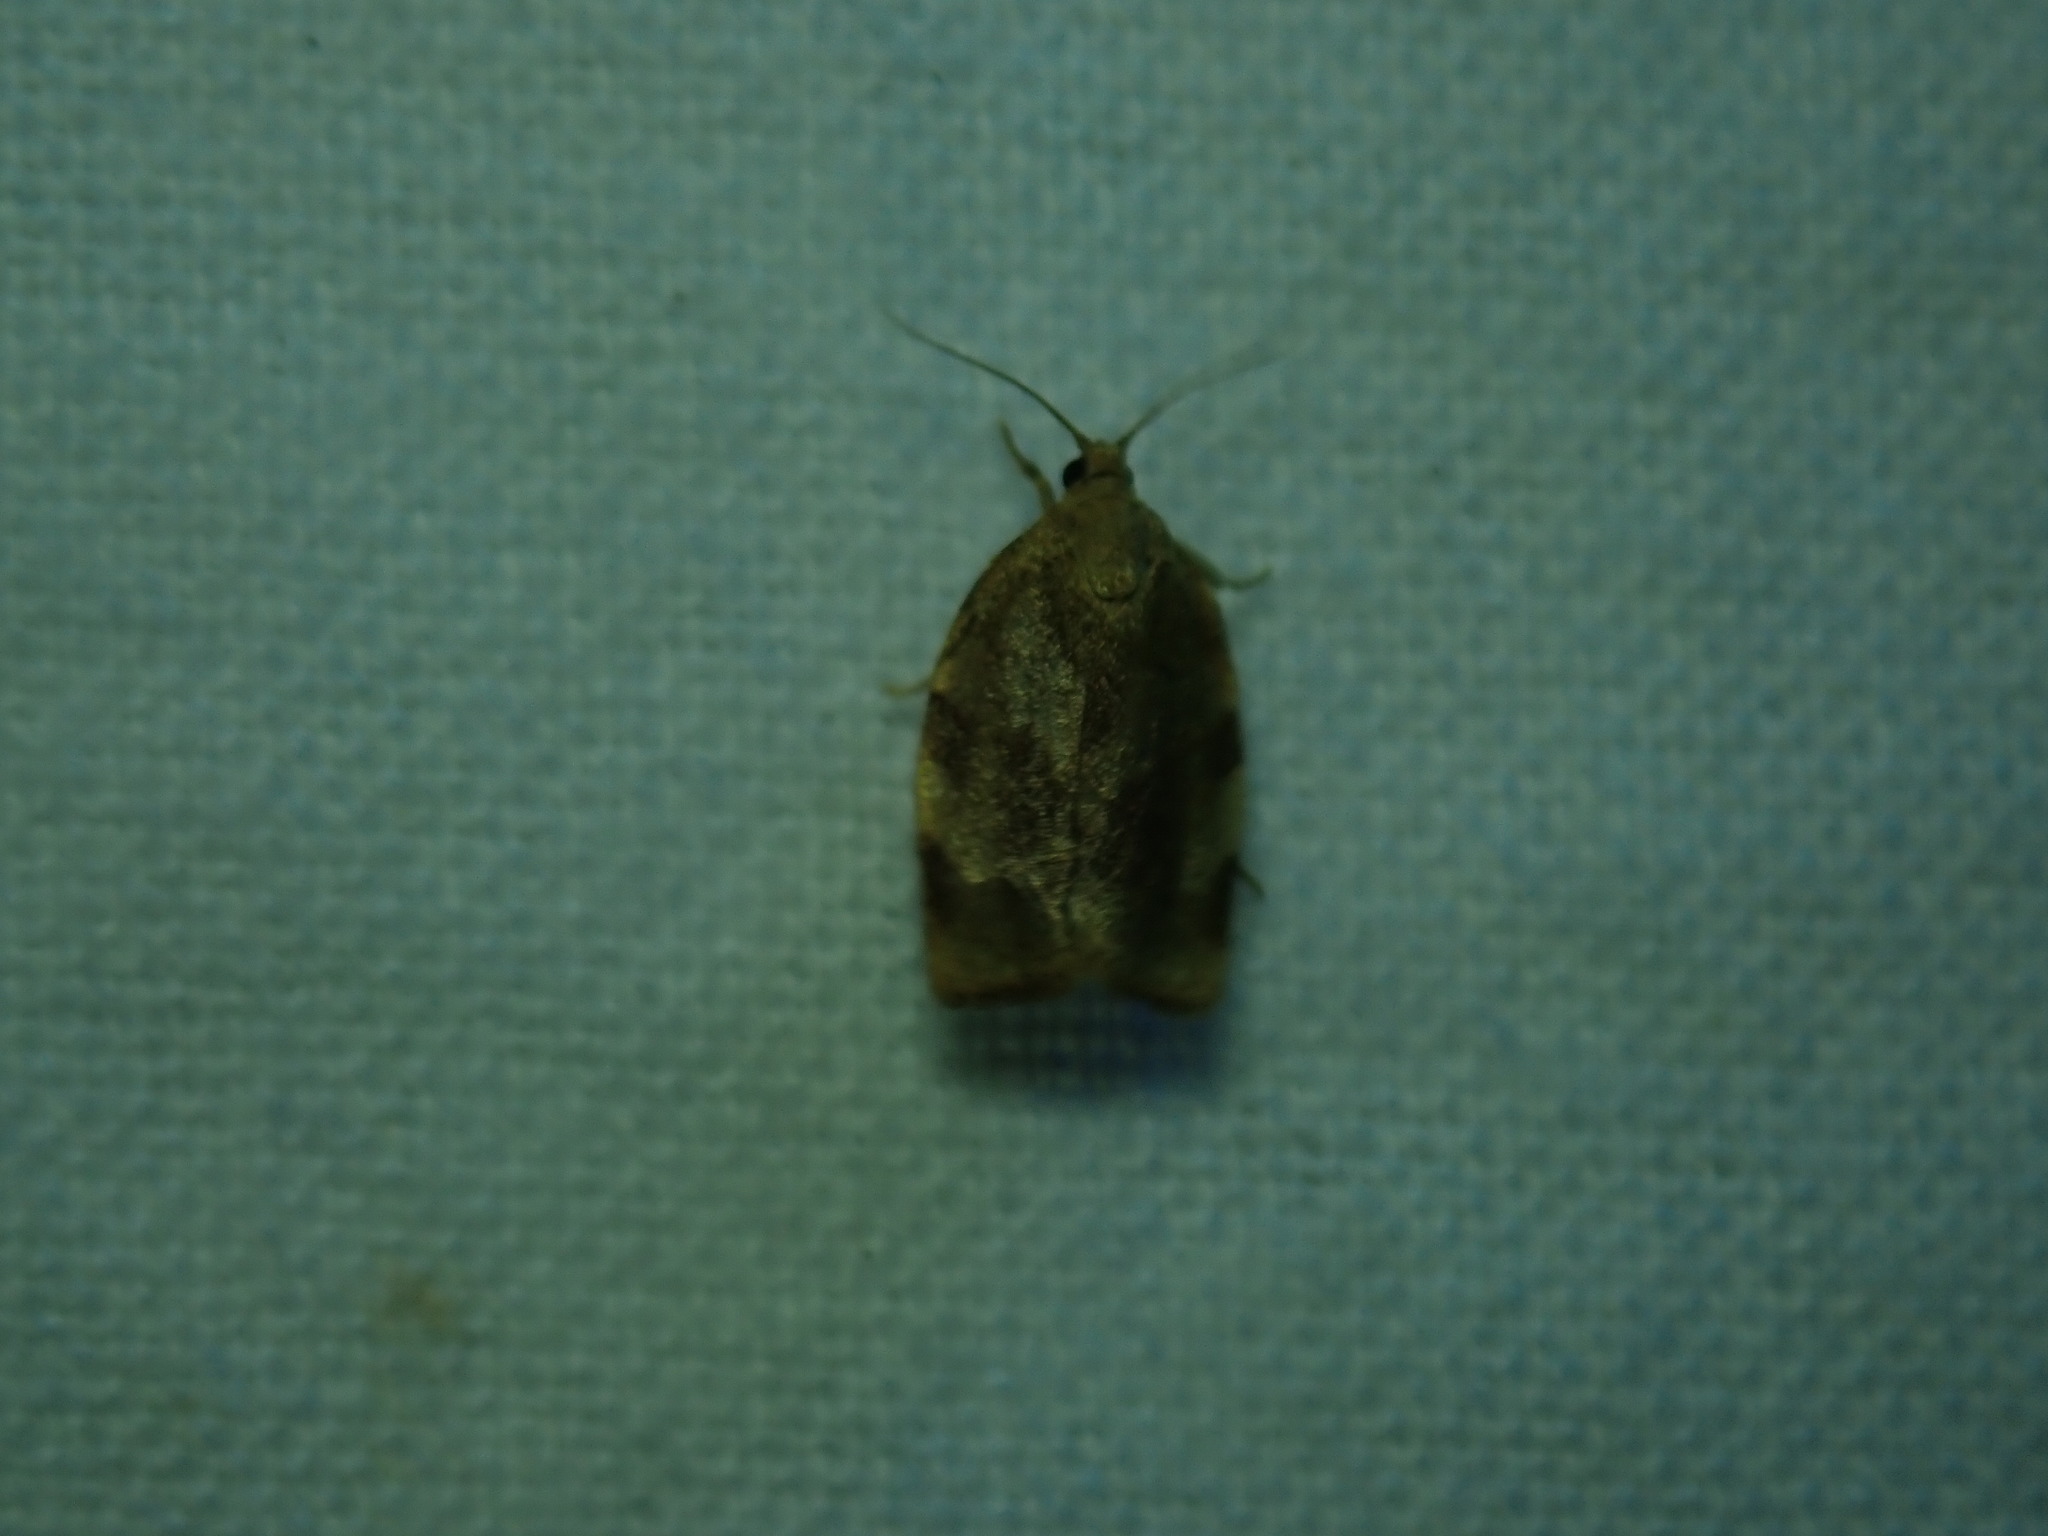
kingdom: Animalia
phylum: Arthropoda
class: Insecta
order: Lepidoptera
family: Tortricidae
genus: Choristoneura
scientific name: Choristoneura fractivittana
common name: Broken-banded leafroller moth
